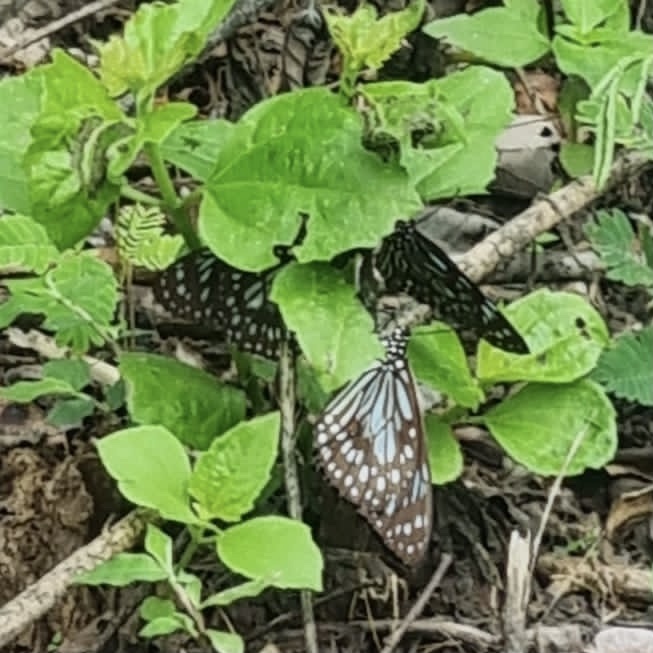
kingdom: Animalia
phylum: Arthropoda
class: Insecta
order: Lepidoptera
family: Nymphalidae
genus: Tirumala
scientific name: Tirumala limniace
